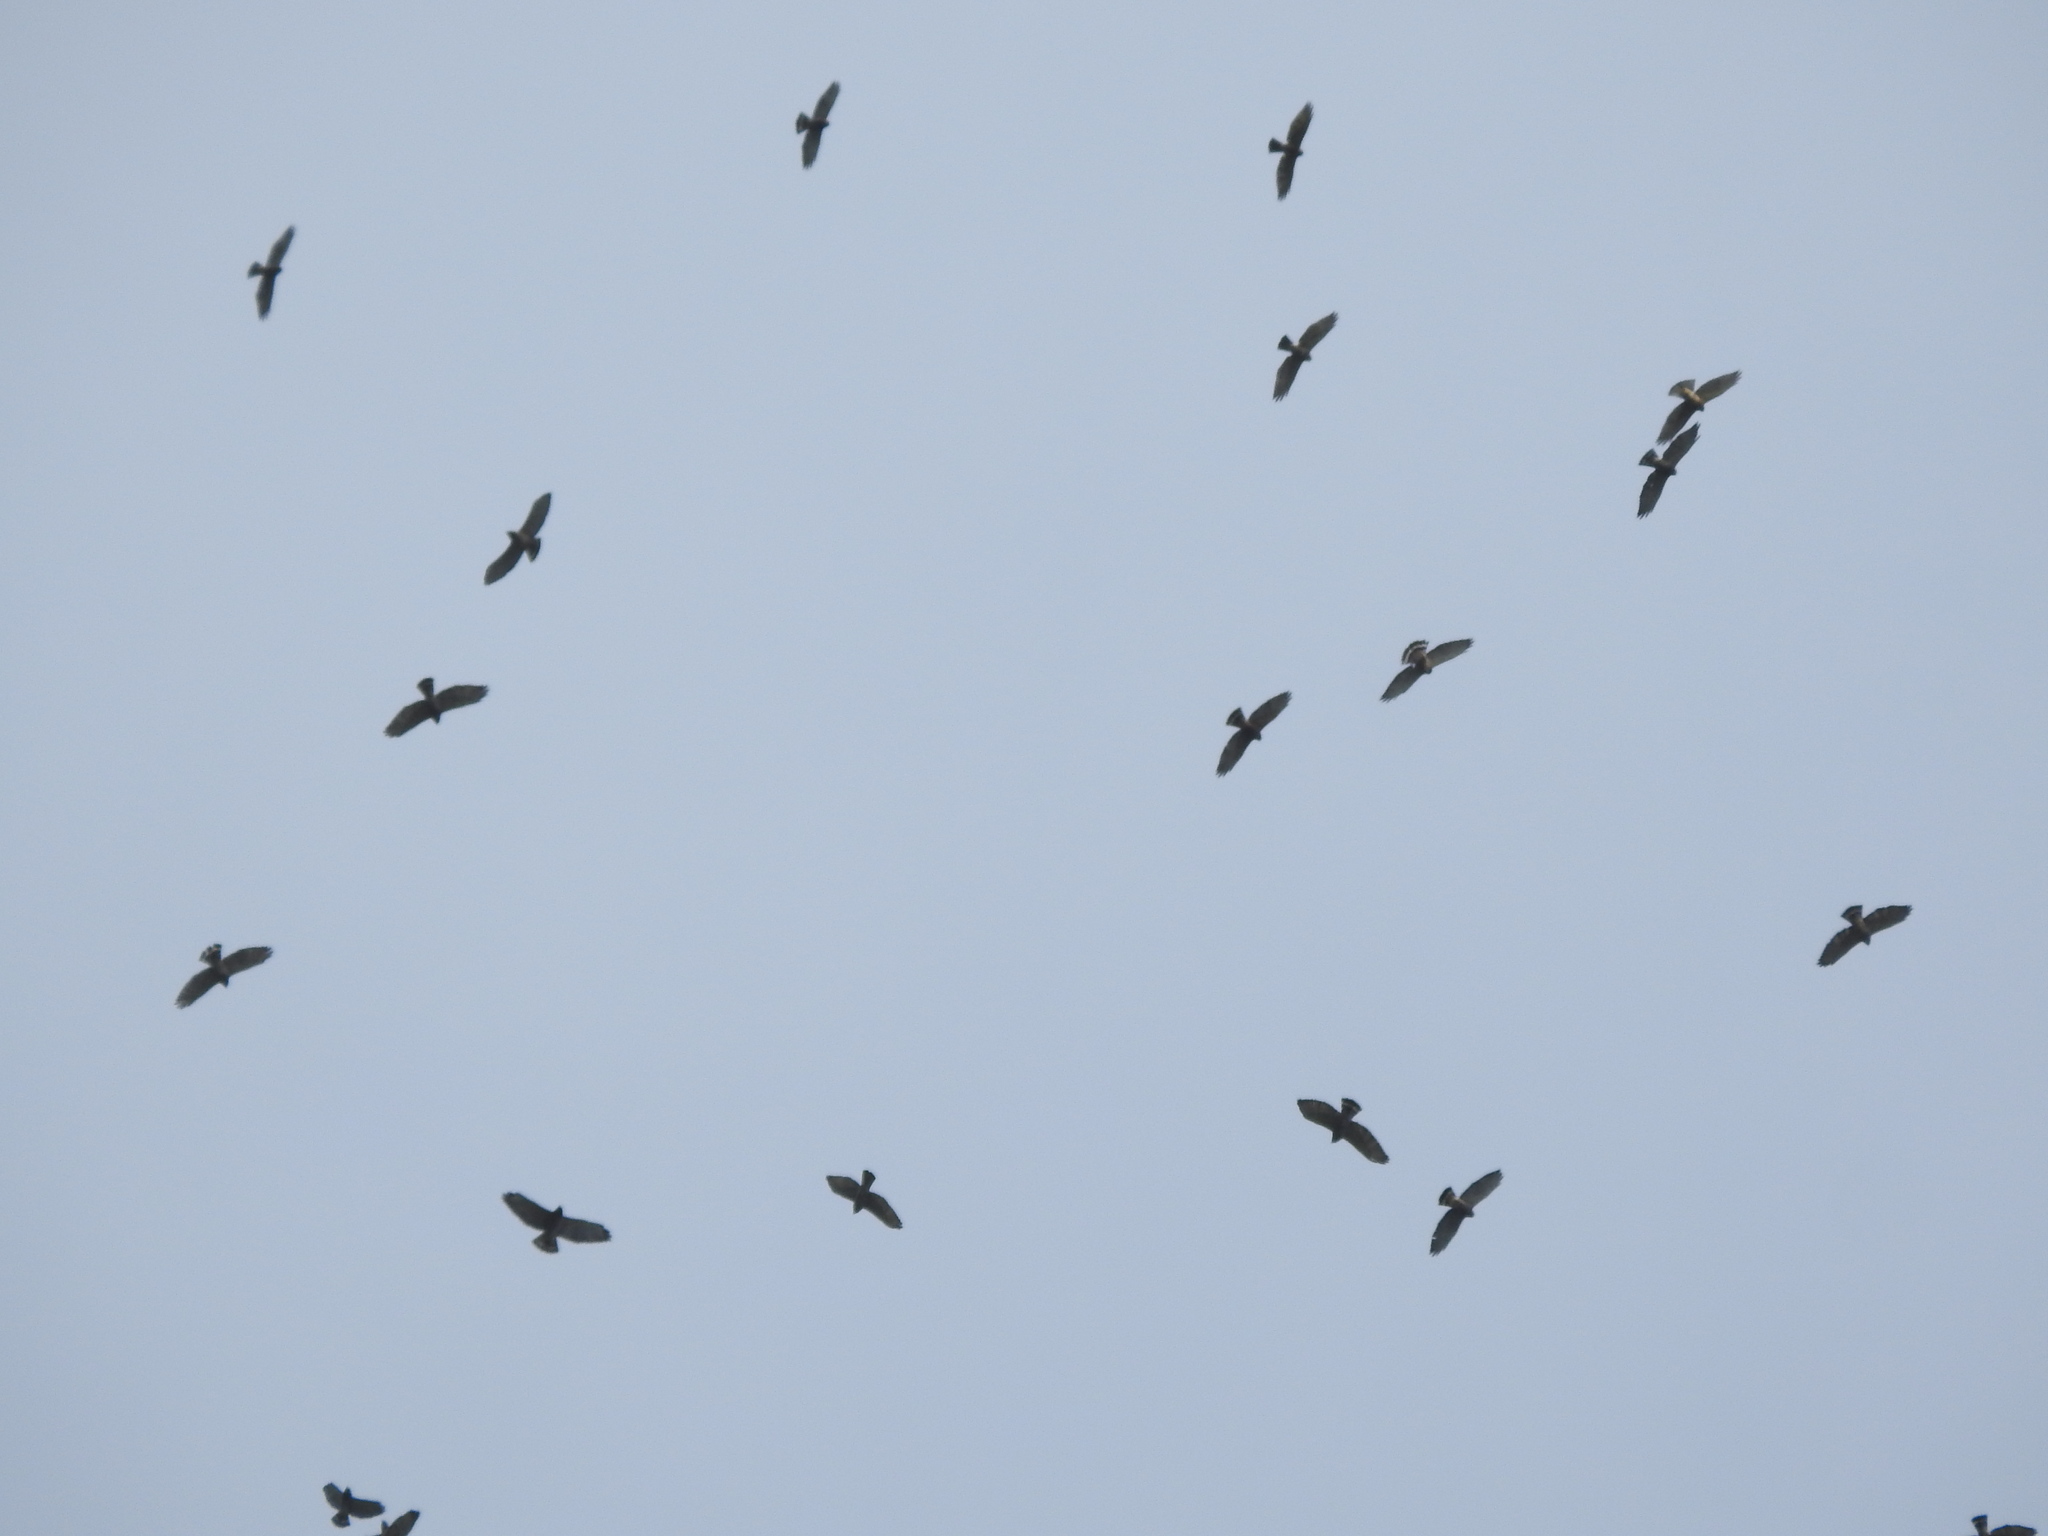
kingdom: Animalia
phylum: Chordata
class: Aves
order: Accipitriformes
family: Accipitridae
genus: Buteo
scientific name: Buteo platypterus
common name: Broad-winged hawk
